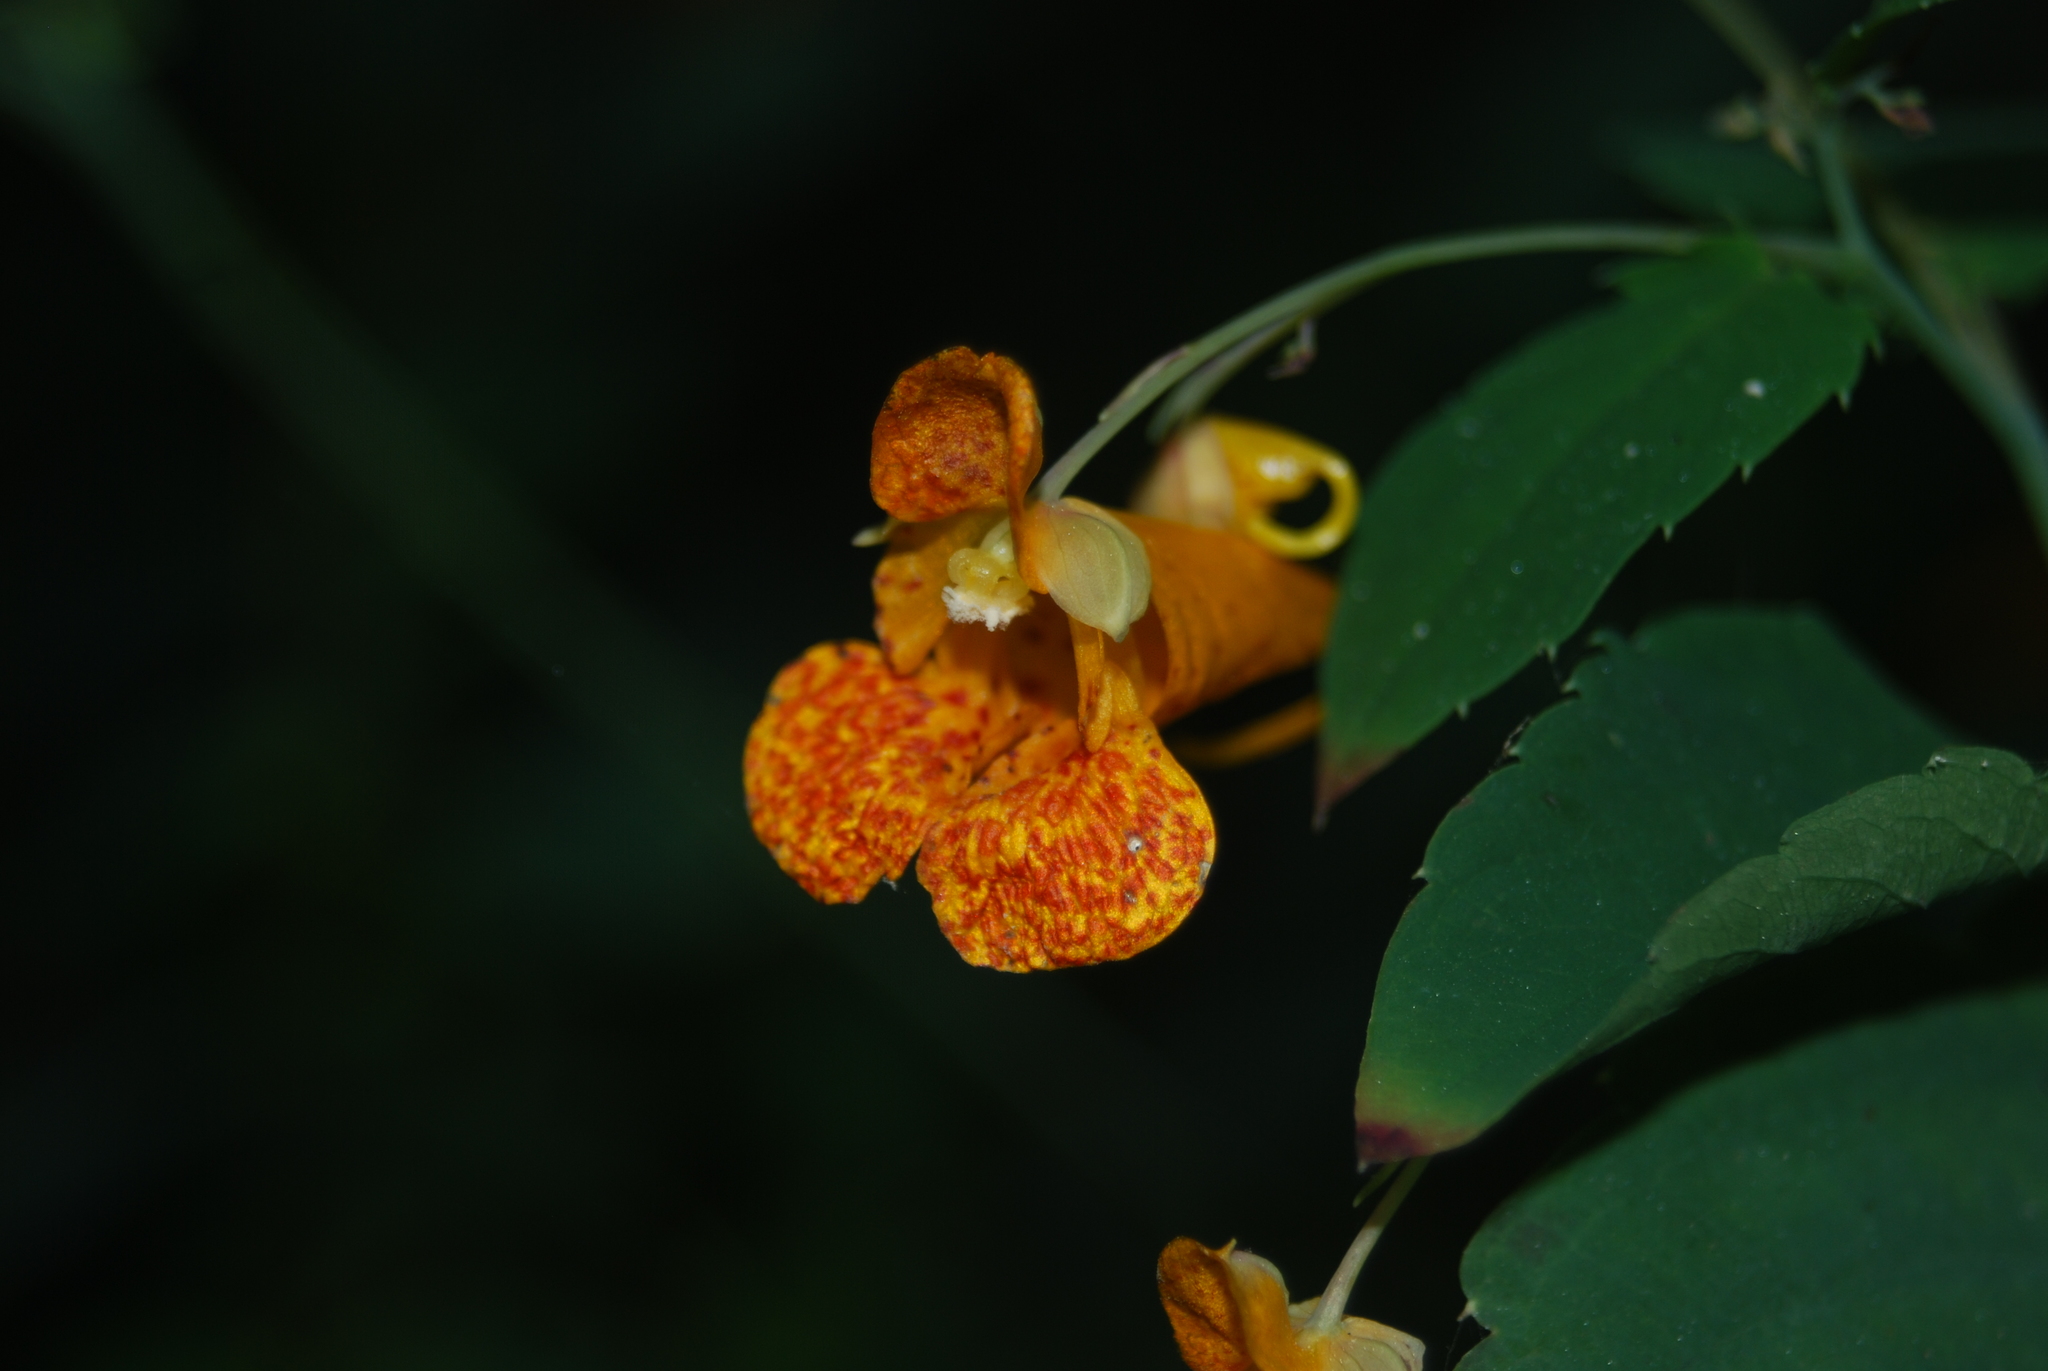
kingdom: Plantae
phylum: Tracheophyta
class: Magnoliopsida
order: Ericales
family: Balsaminaceae
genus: Impatiens
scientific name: Impatiens capensis
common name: Orange balsam
